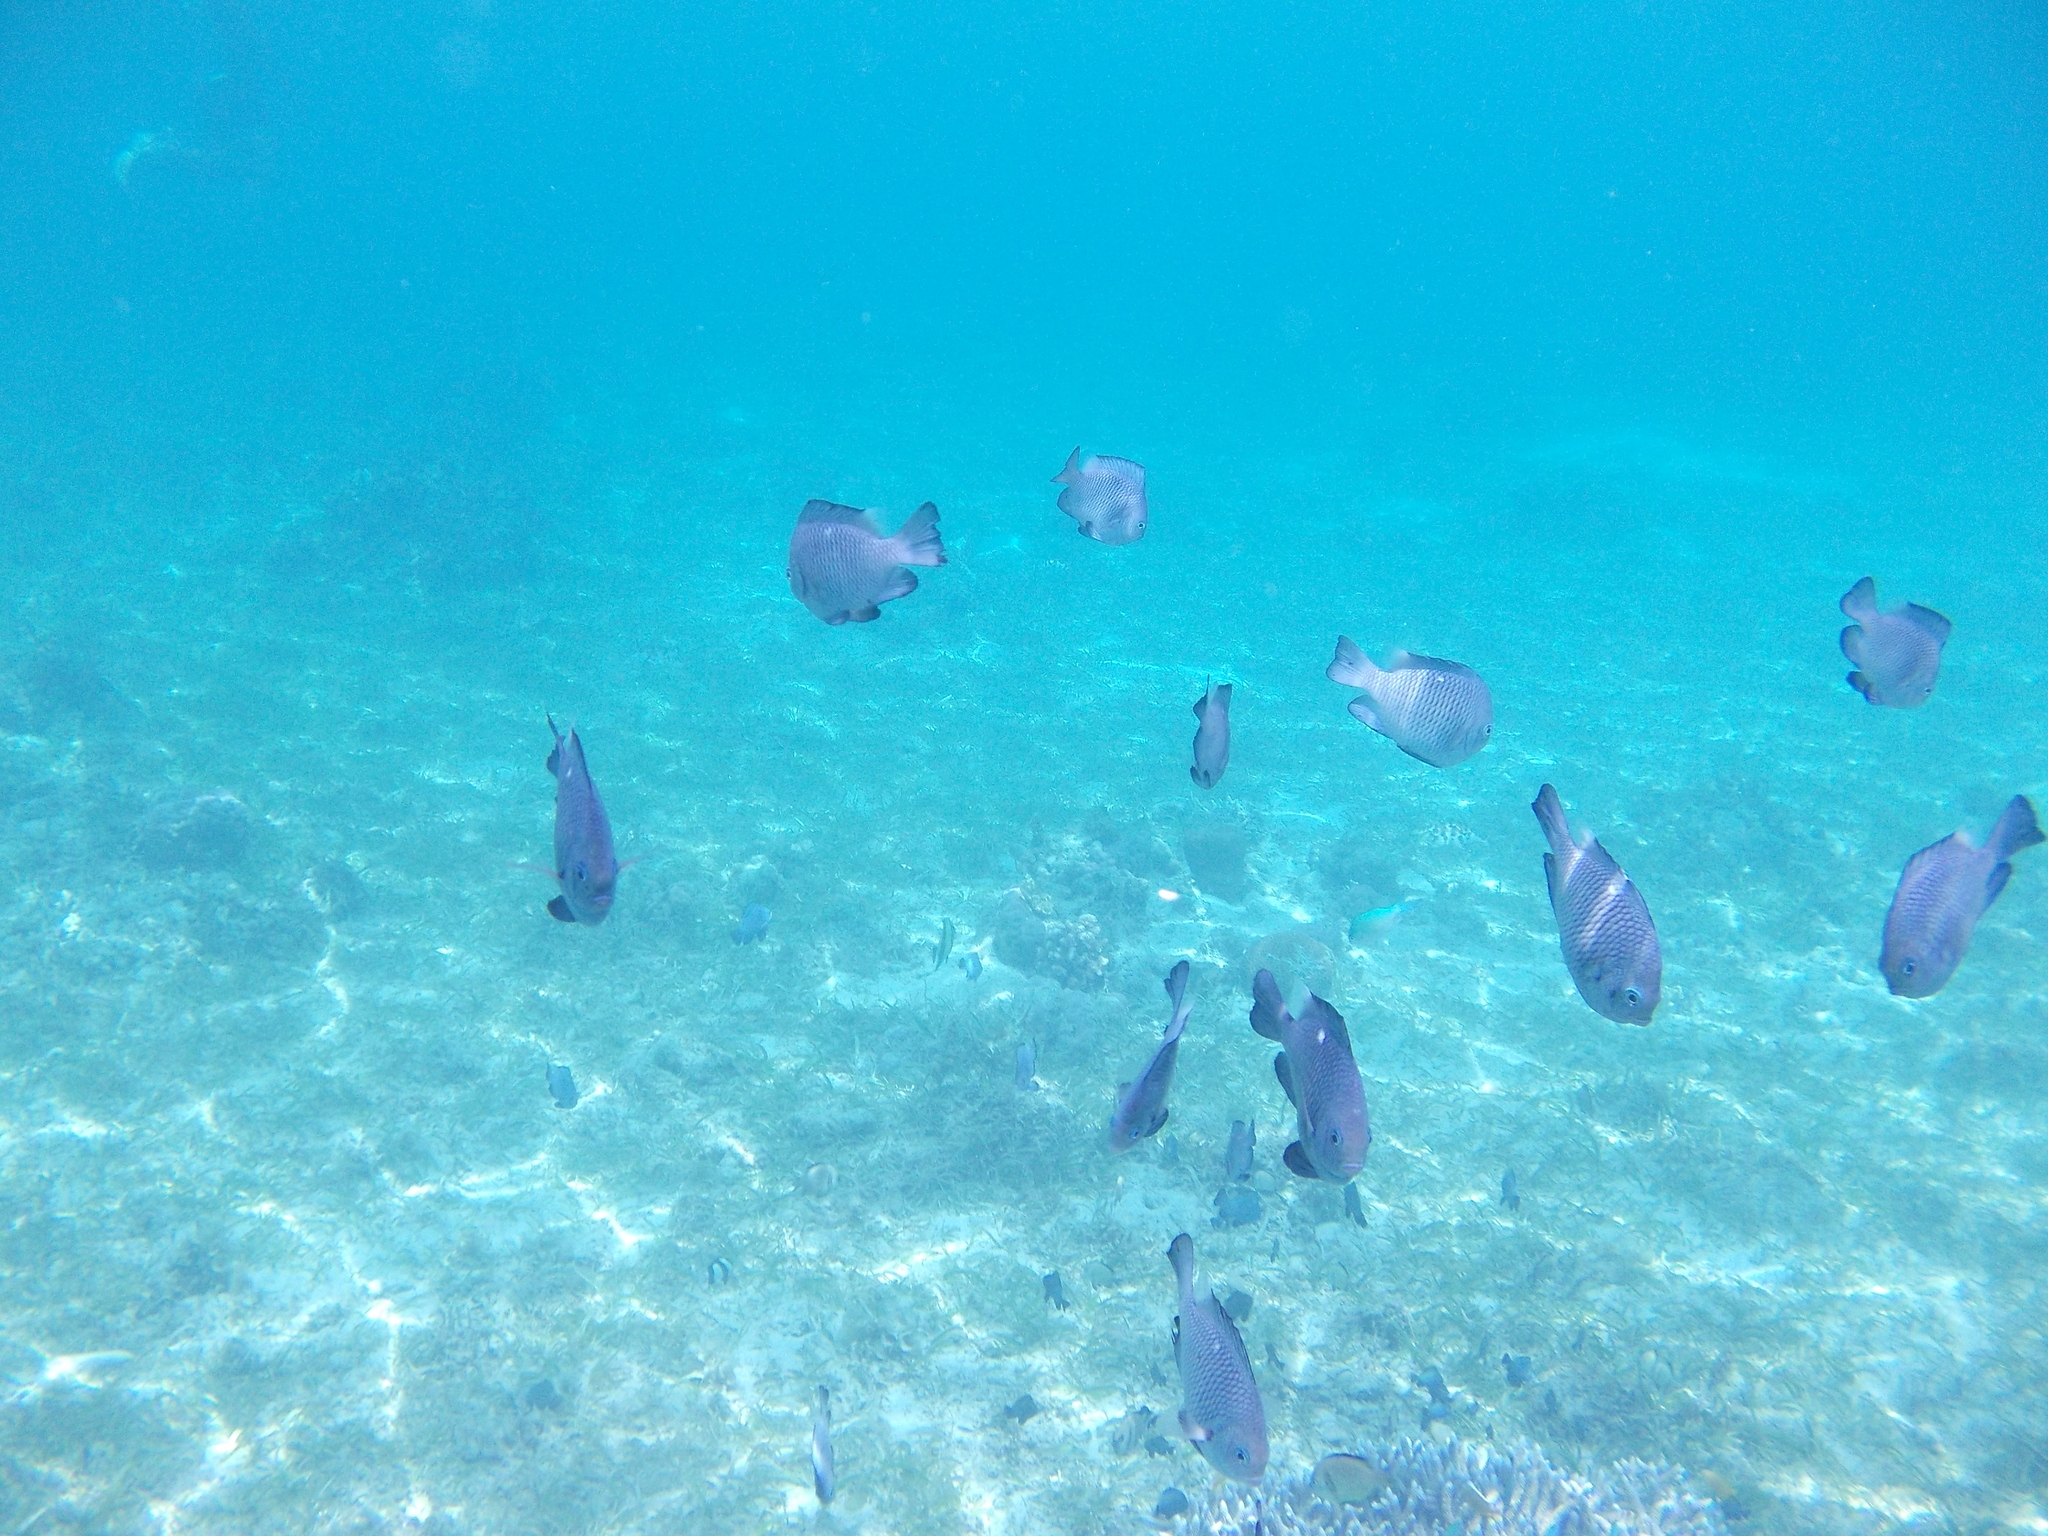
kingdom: Animalia
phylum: Chordata
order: Perciformes
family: Pomacentridae
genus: Dascyllus
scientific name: Dascyllus trimaculatus
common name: Threespot dascyllus
